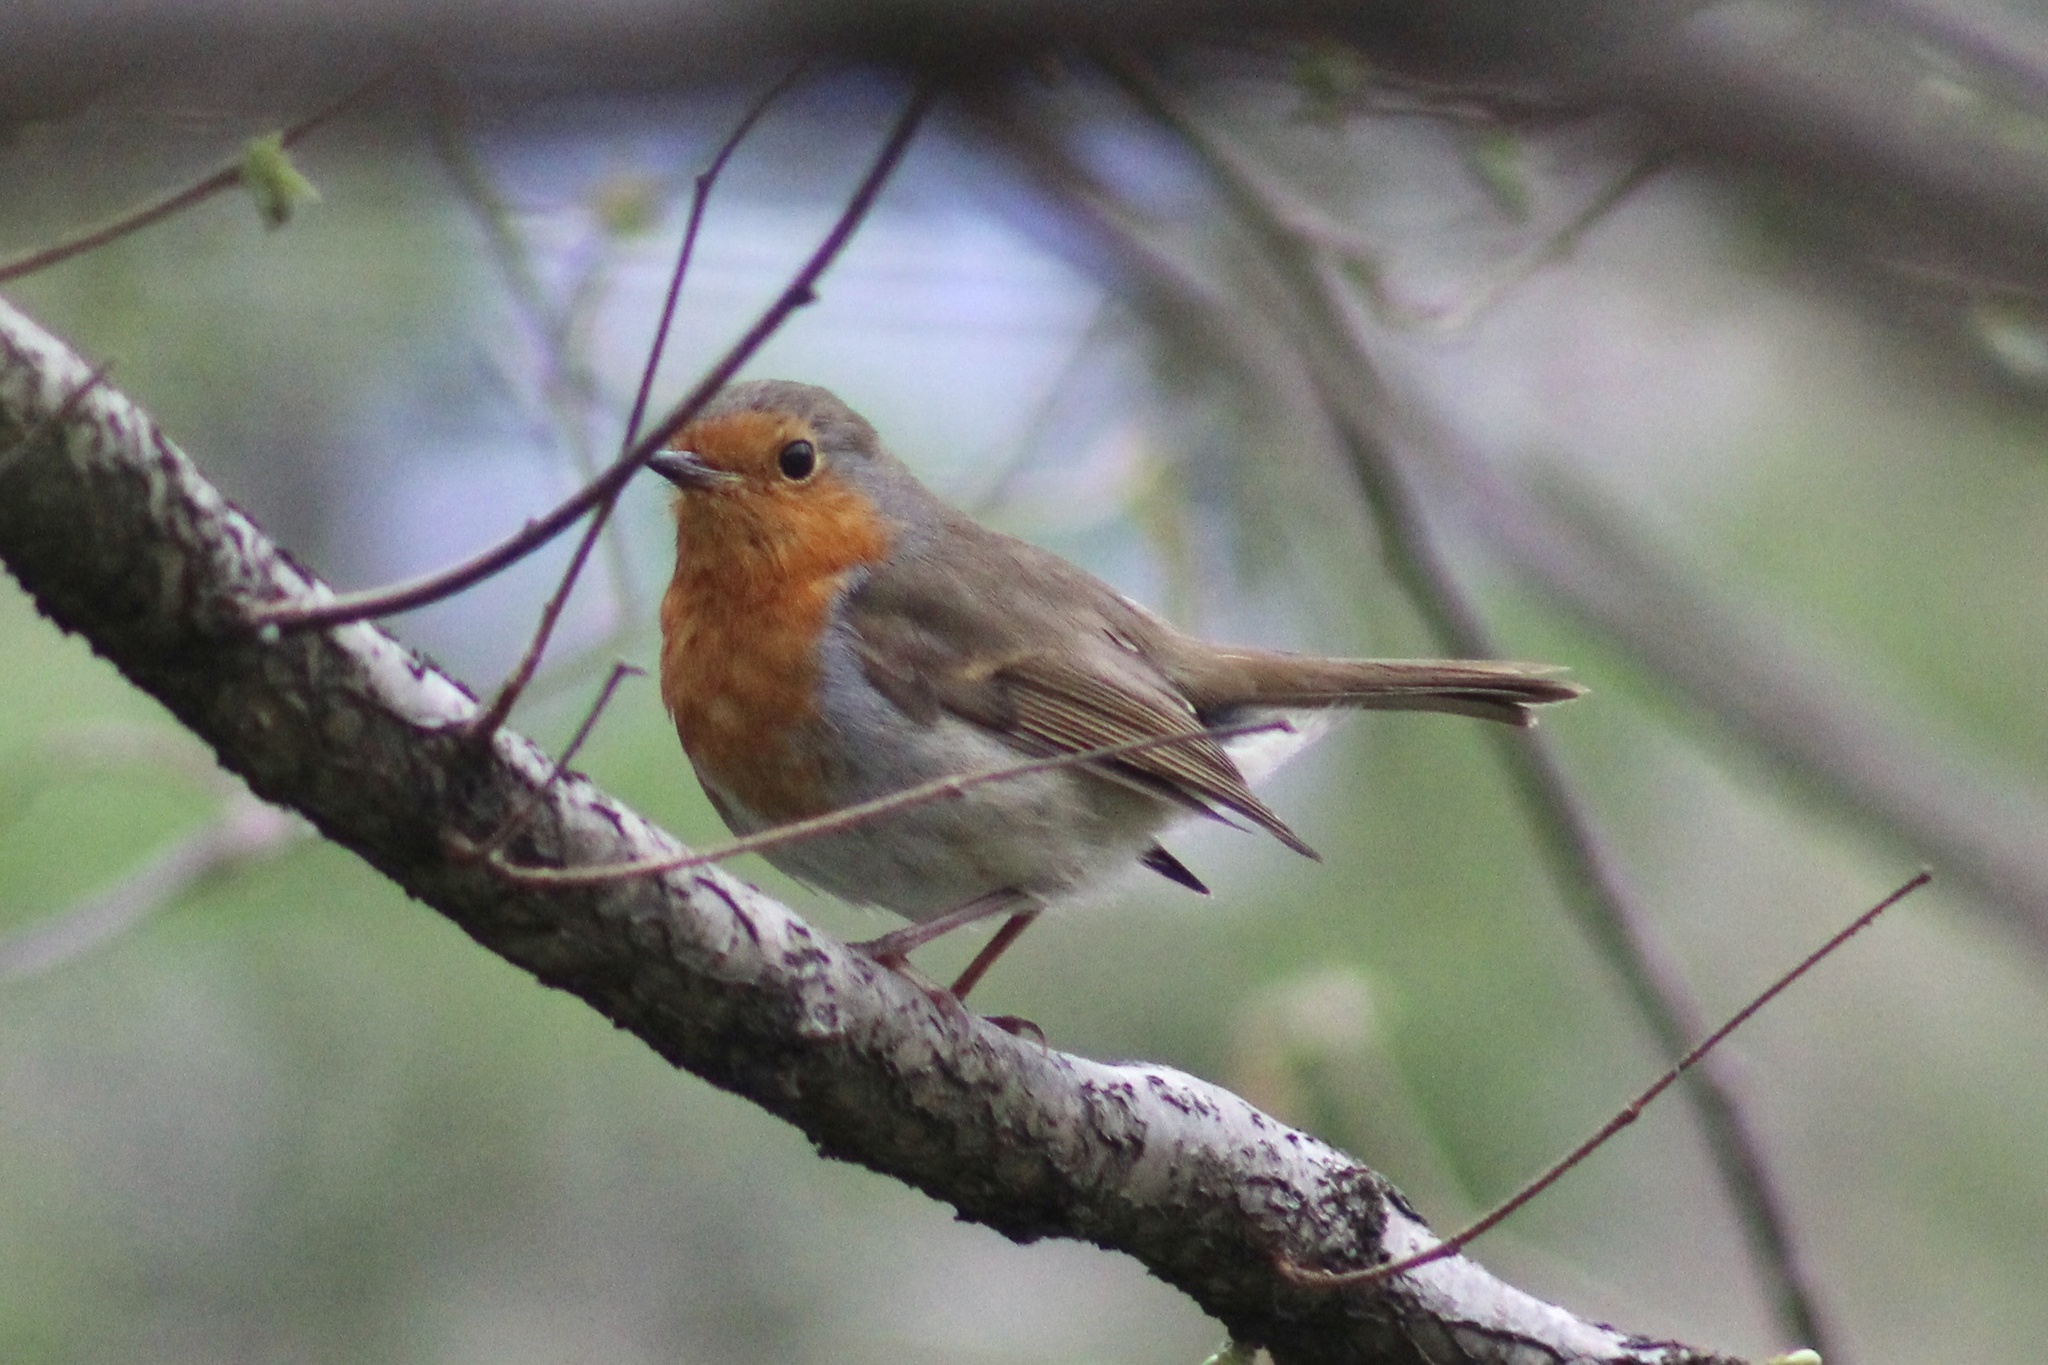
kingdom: Animalia
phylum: Chordata
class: Aves
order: Passeriformes
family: Muscicapidae
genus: Erithacus
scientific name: Erithacus rubecula
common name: European robin
